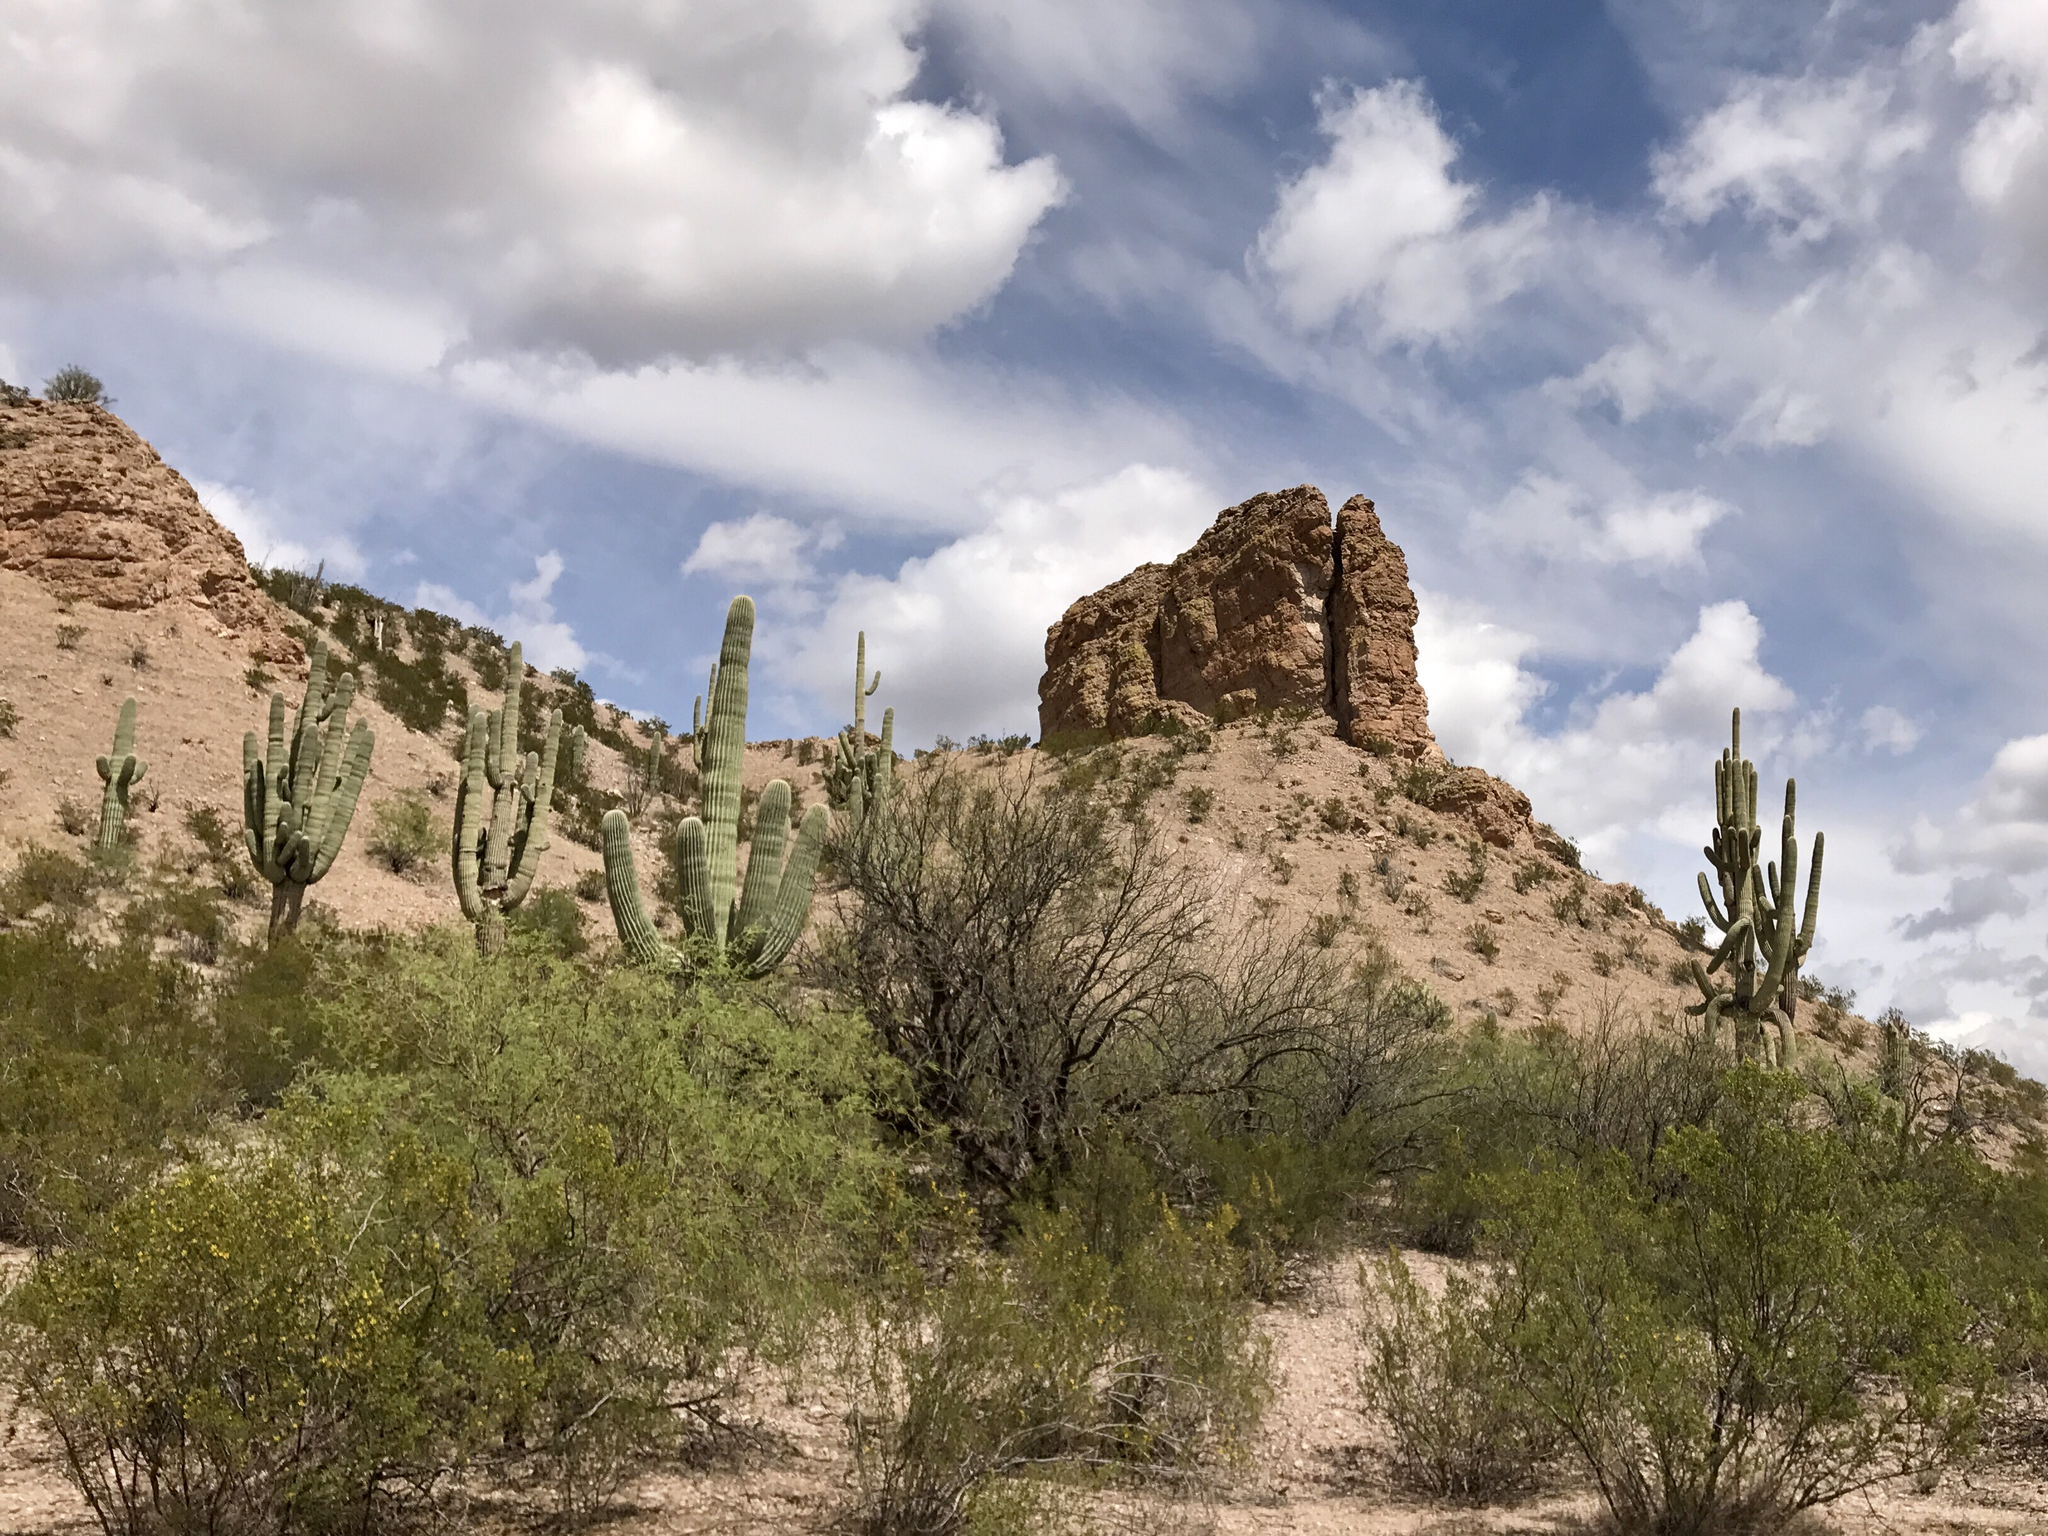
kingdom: Plantae
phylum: Tracheophyta
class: Magnoliopsida
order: Caryophyllales
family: Cactaceae
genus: Carnegiea
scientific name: Carnegiea gigantea
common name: Saguaro
